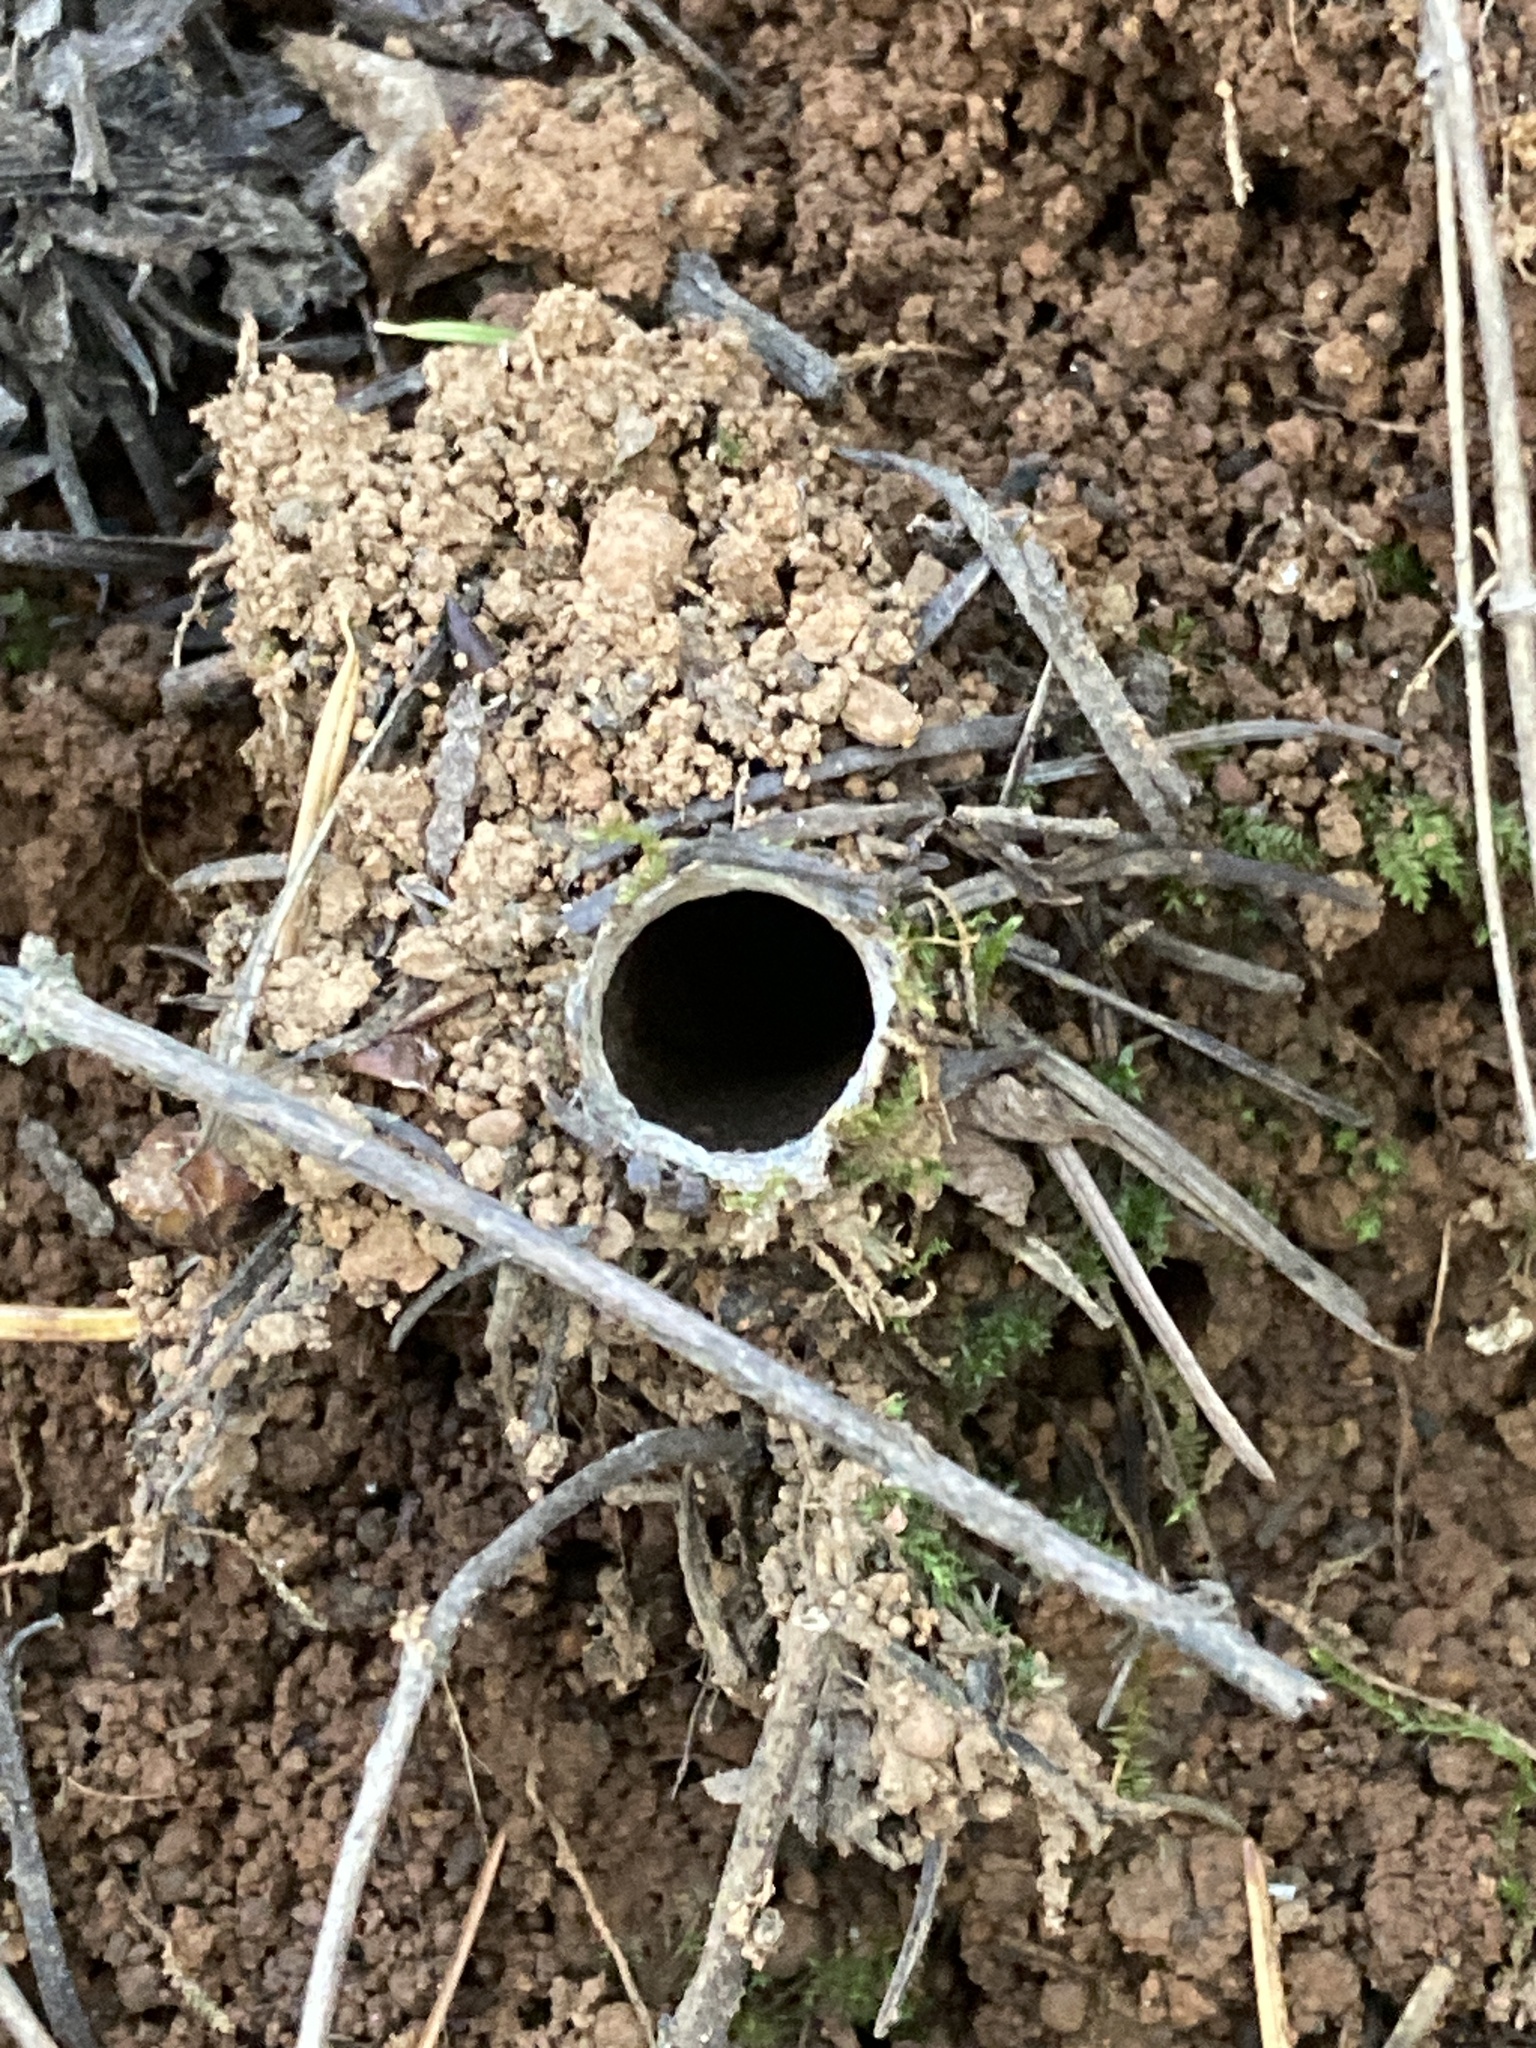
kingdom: Animalia
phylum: Arthropoda
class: Arachnida
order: Araneae
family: Antrodiaetidae
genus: Atypoides
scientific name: Atypoides riversi
